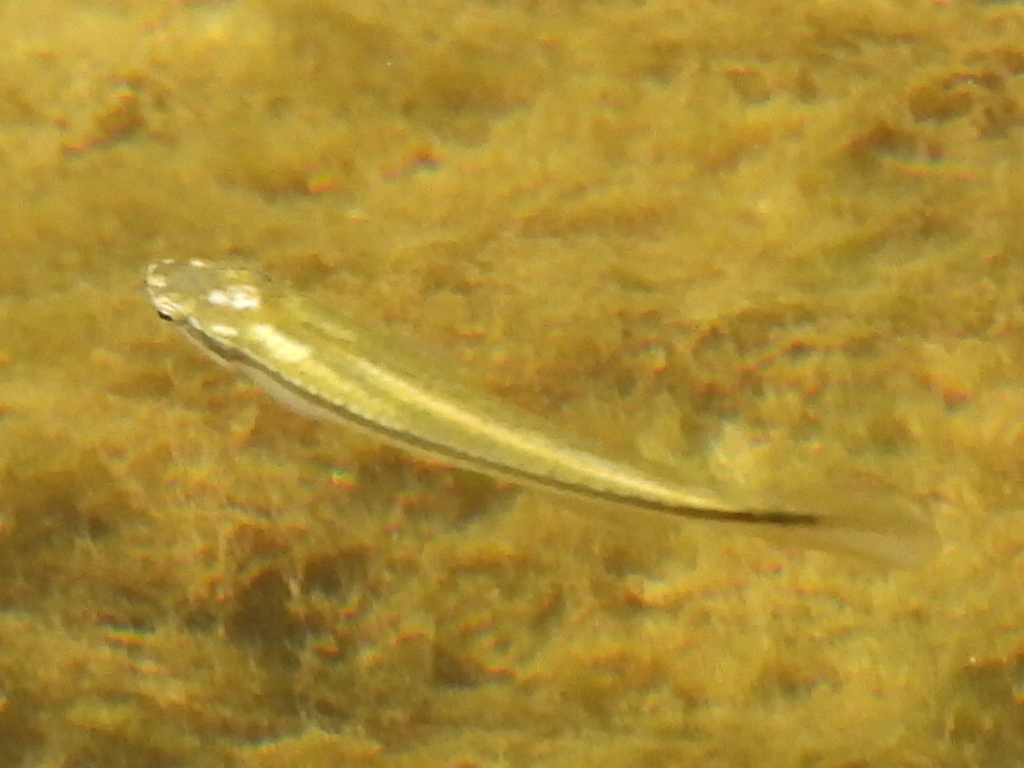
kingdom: Animalia
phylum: Chordata
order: Cyprinodontiformes
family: Fundulidae
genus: Fundulus
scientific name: Fundulus notatus
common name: Blackstripe topminnow
